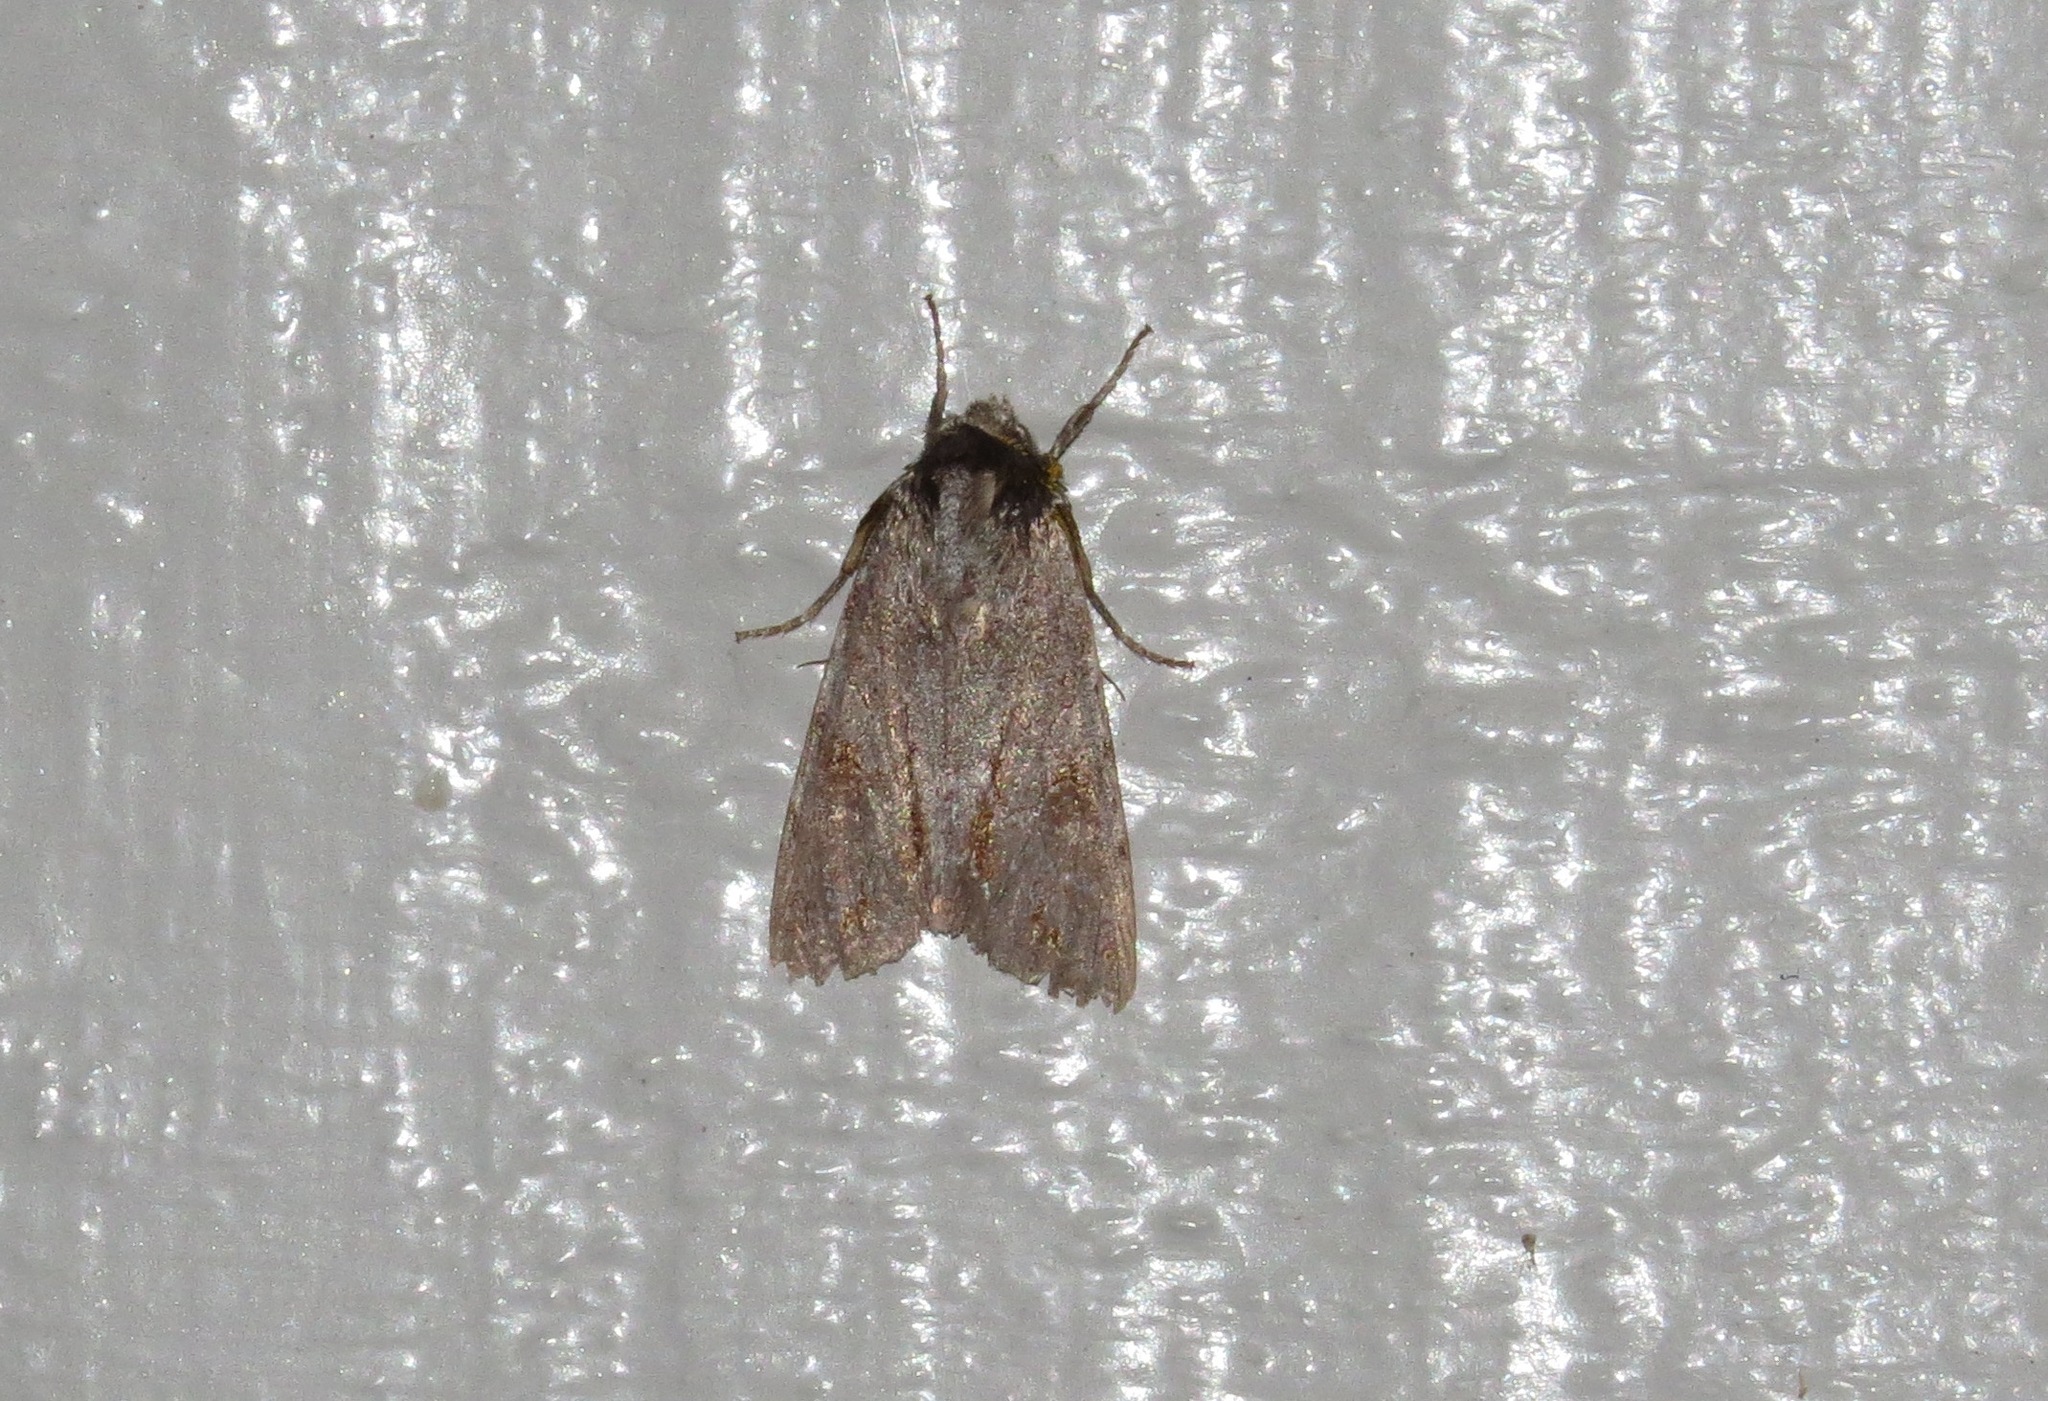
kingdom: Animalia
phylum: Arthropoda
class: Insecta
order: Lepidoptera
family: Noctuidae
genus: Ichneutica
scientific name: Ichneutica
